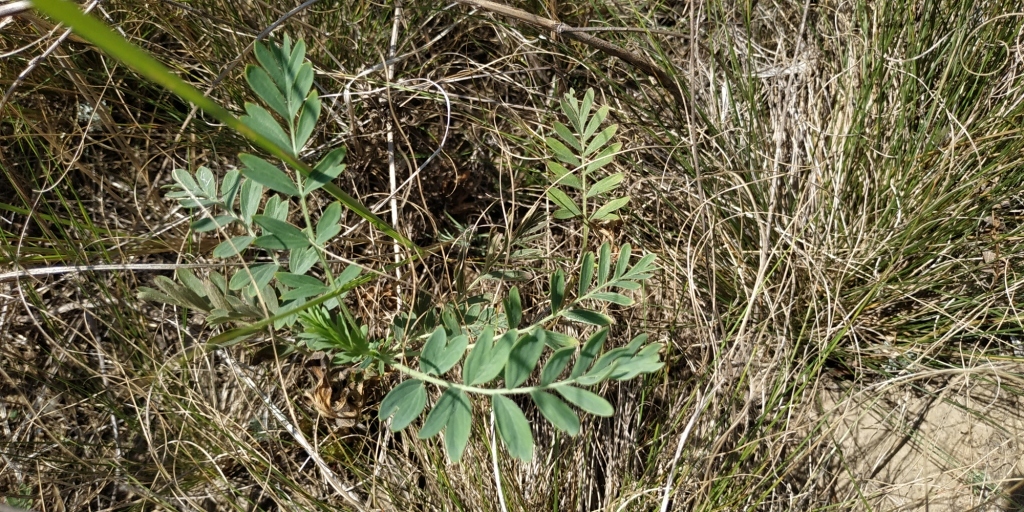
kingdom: Plantae
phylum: Tracheophyta
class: Magnoliopsida
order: Rosales
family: Rosaceae
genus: Sibbaldianthe
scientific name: Sibbaldianthe bifurca
